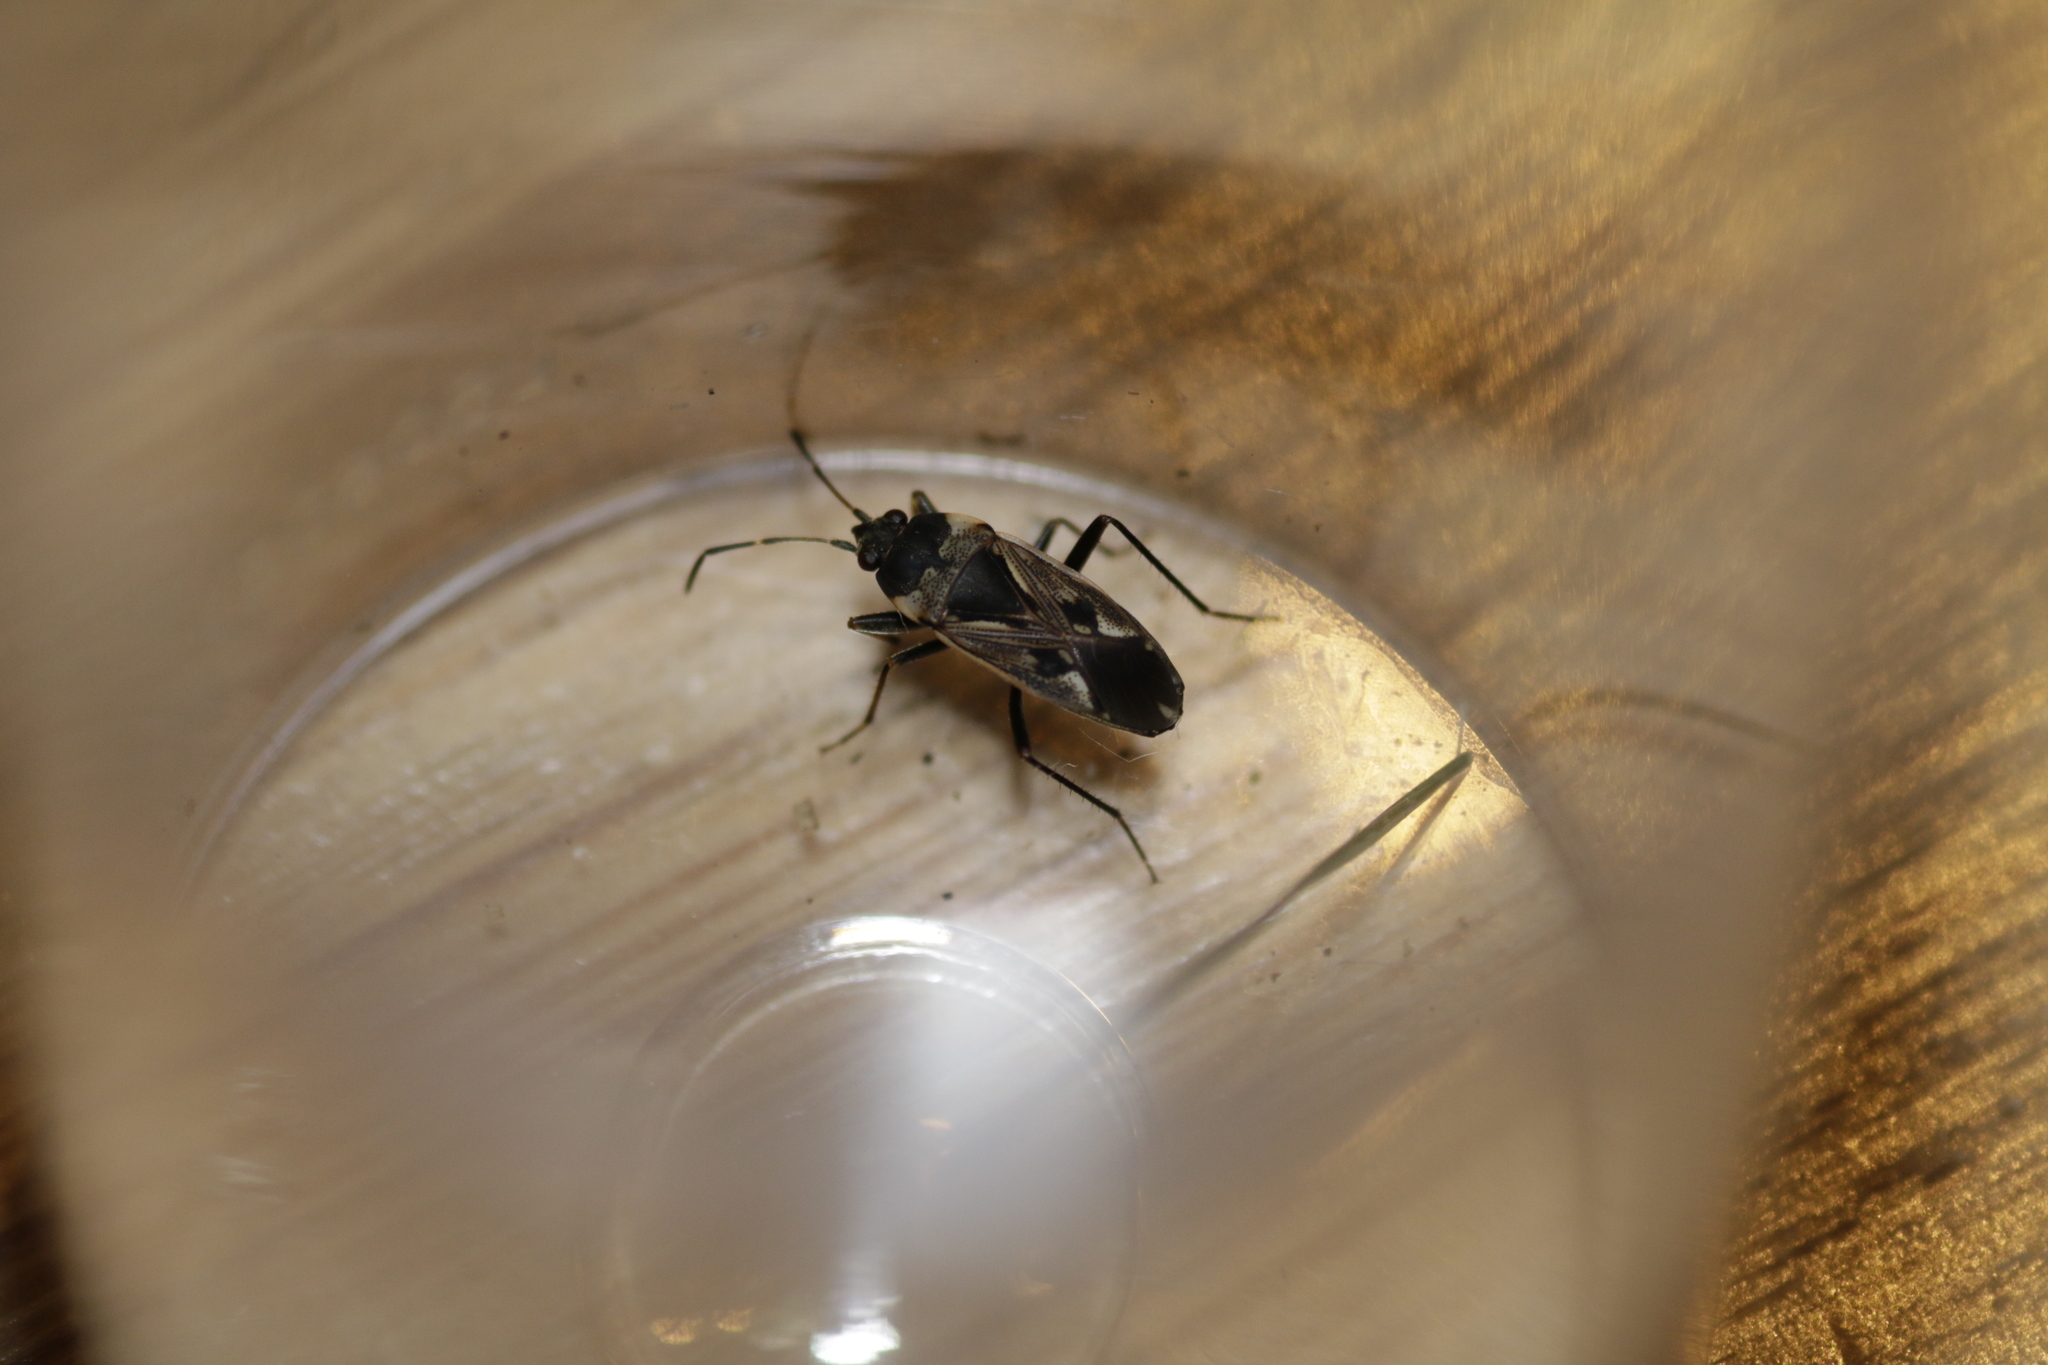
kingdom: Animalia
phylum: Arthropoda
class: Insecta
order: Hemiptera
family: Rhyparochromidae
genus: Rhyparochromus
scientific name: Rhyparochromus vulgaris
